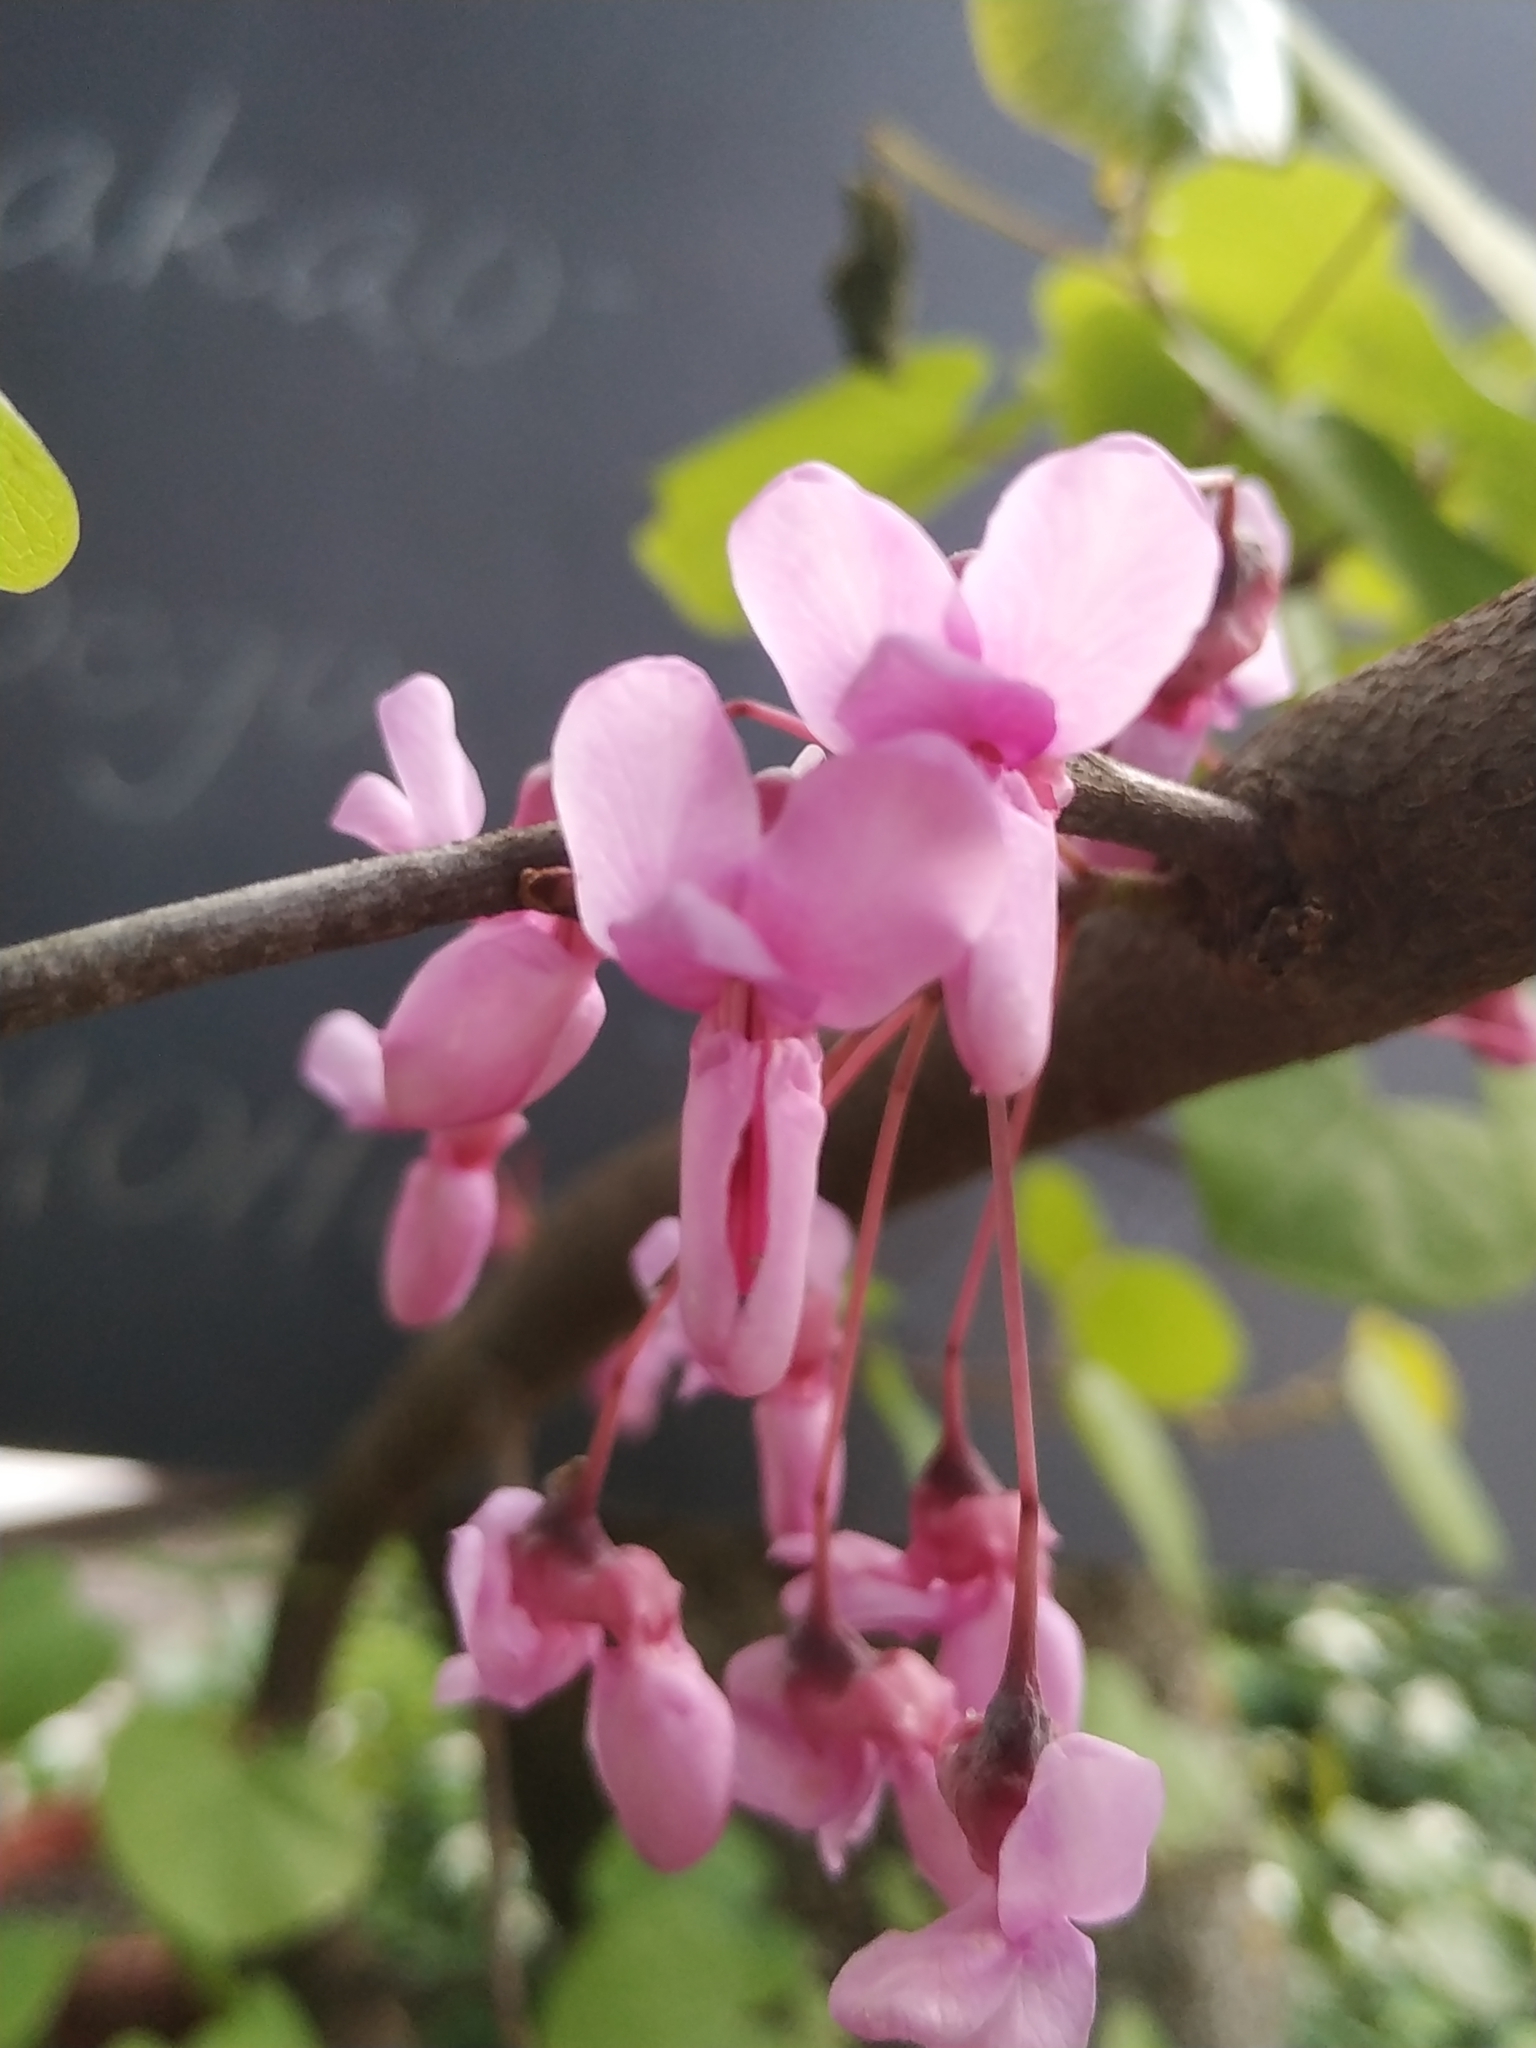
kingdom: Plantae
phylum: Tracheophyta
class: Magnoliopsida
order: Fabales
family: Fabaceae
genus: Cercis
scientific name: Cercis siliquastrum
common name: Judas tree
